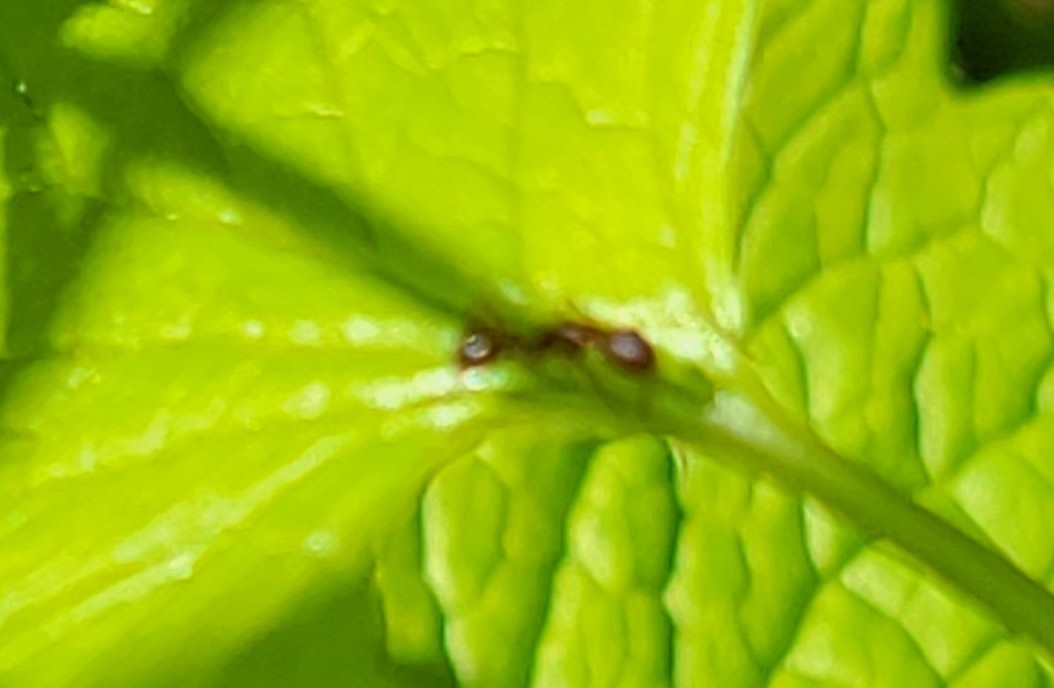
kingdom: Animalia
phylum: Arthropoda
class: Insecta
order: Hymenoptera
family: Formicidae
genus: Camponotus
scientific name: Camponotus subbarbatus
